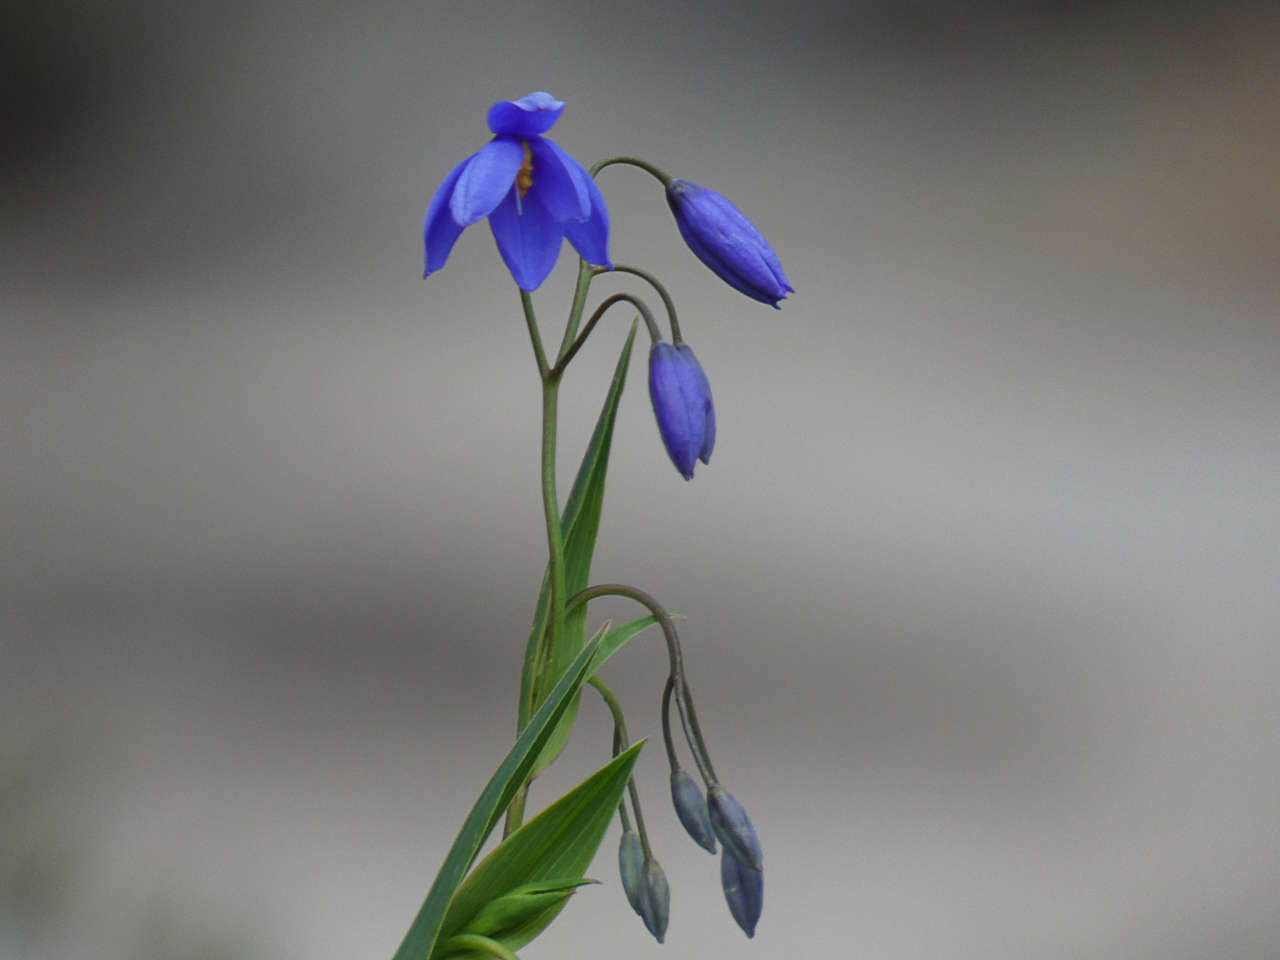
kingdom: Plantae
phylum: Tracheophyta
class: Liliopsida
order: Asparagales
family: Asphodelaceae
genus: Stypandra
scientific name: Stypandra glauca
